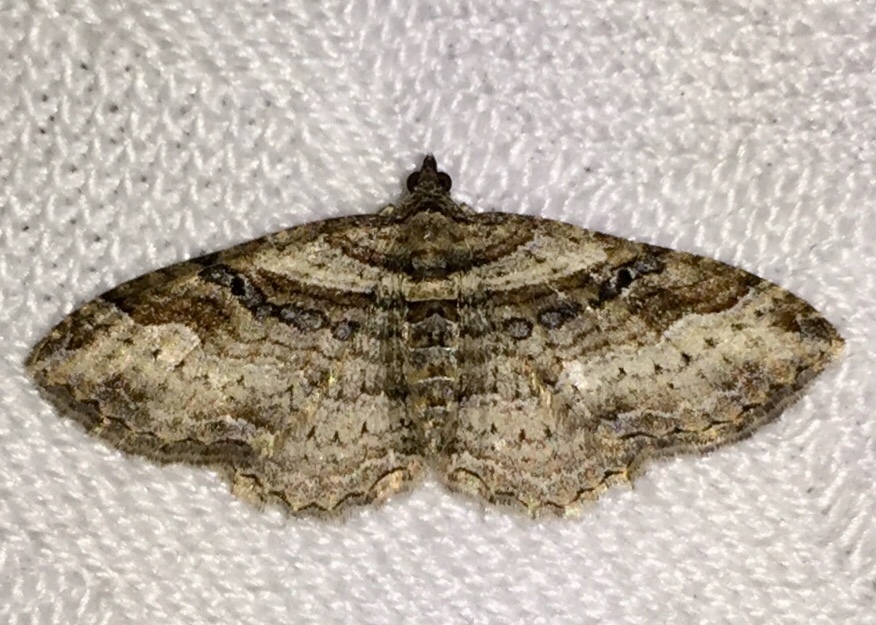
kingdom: Animalia
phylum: Arthropoda
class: Insecta
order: Lepidoptera
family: Geometridae
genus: Costaconvexa
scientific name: Costaconvexa centrostrigaria
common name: Bent-line carpet
